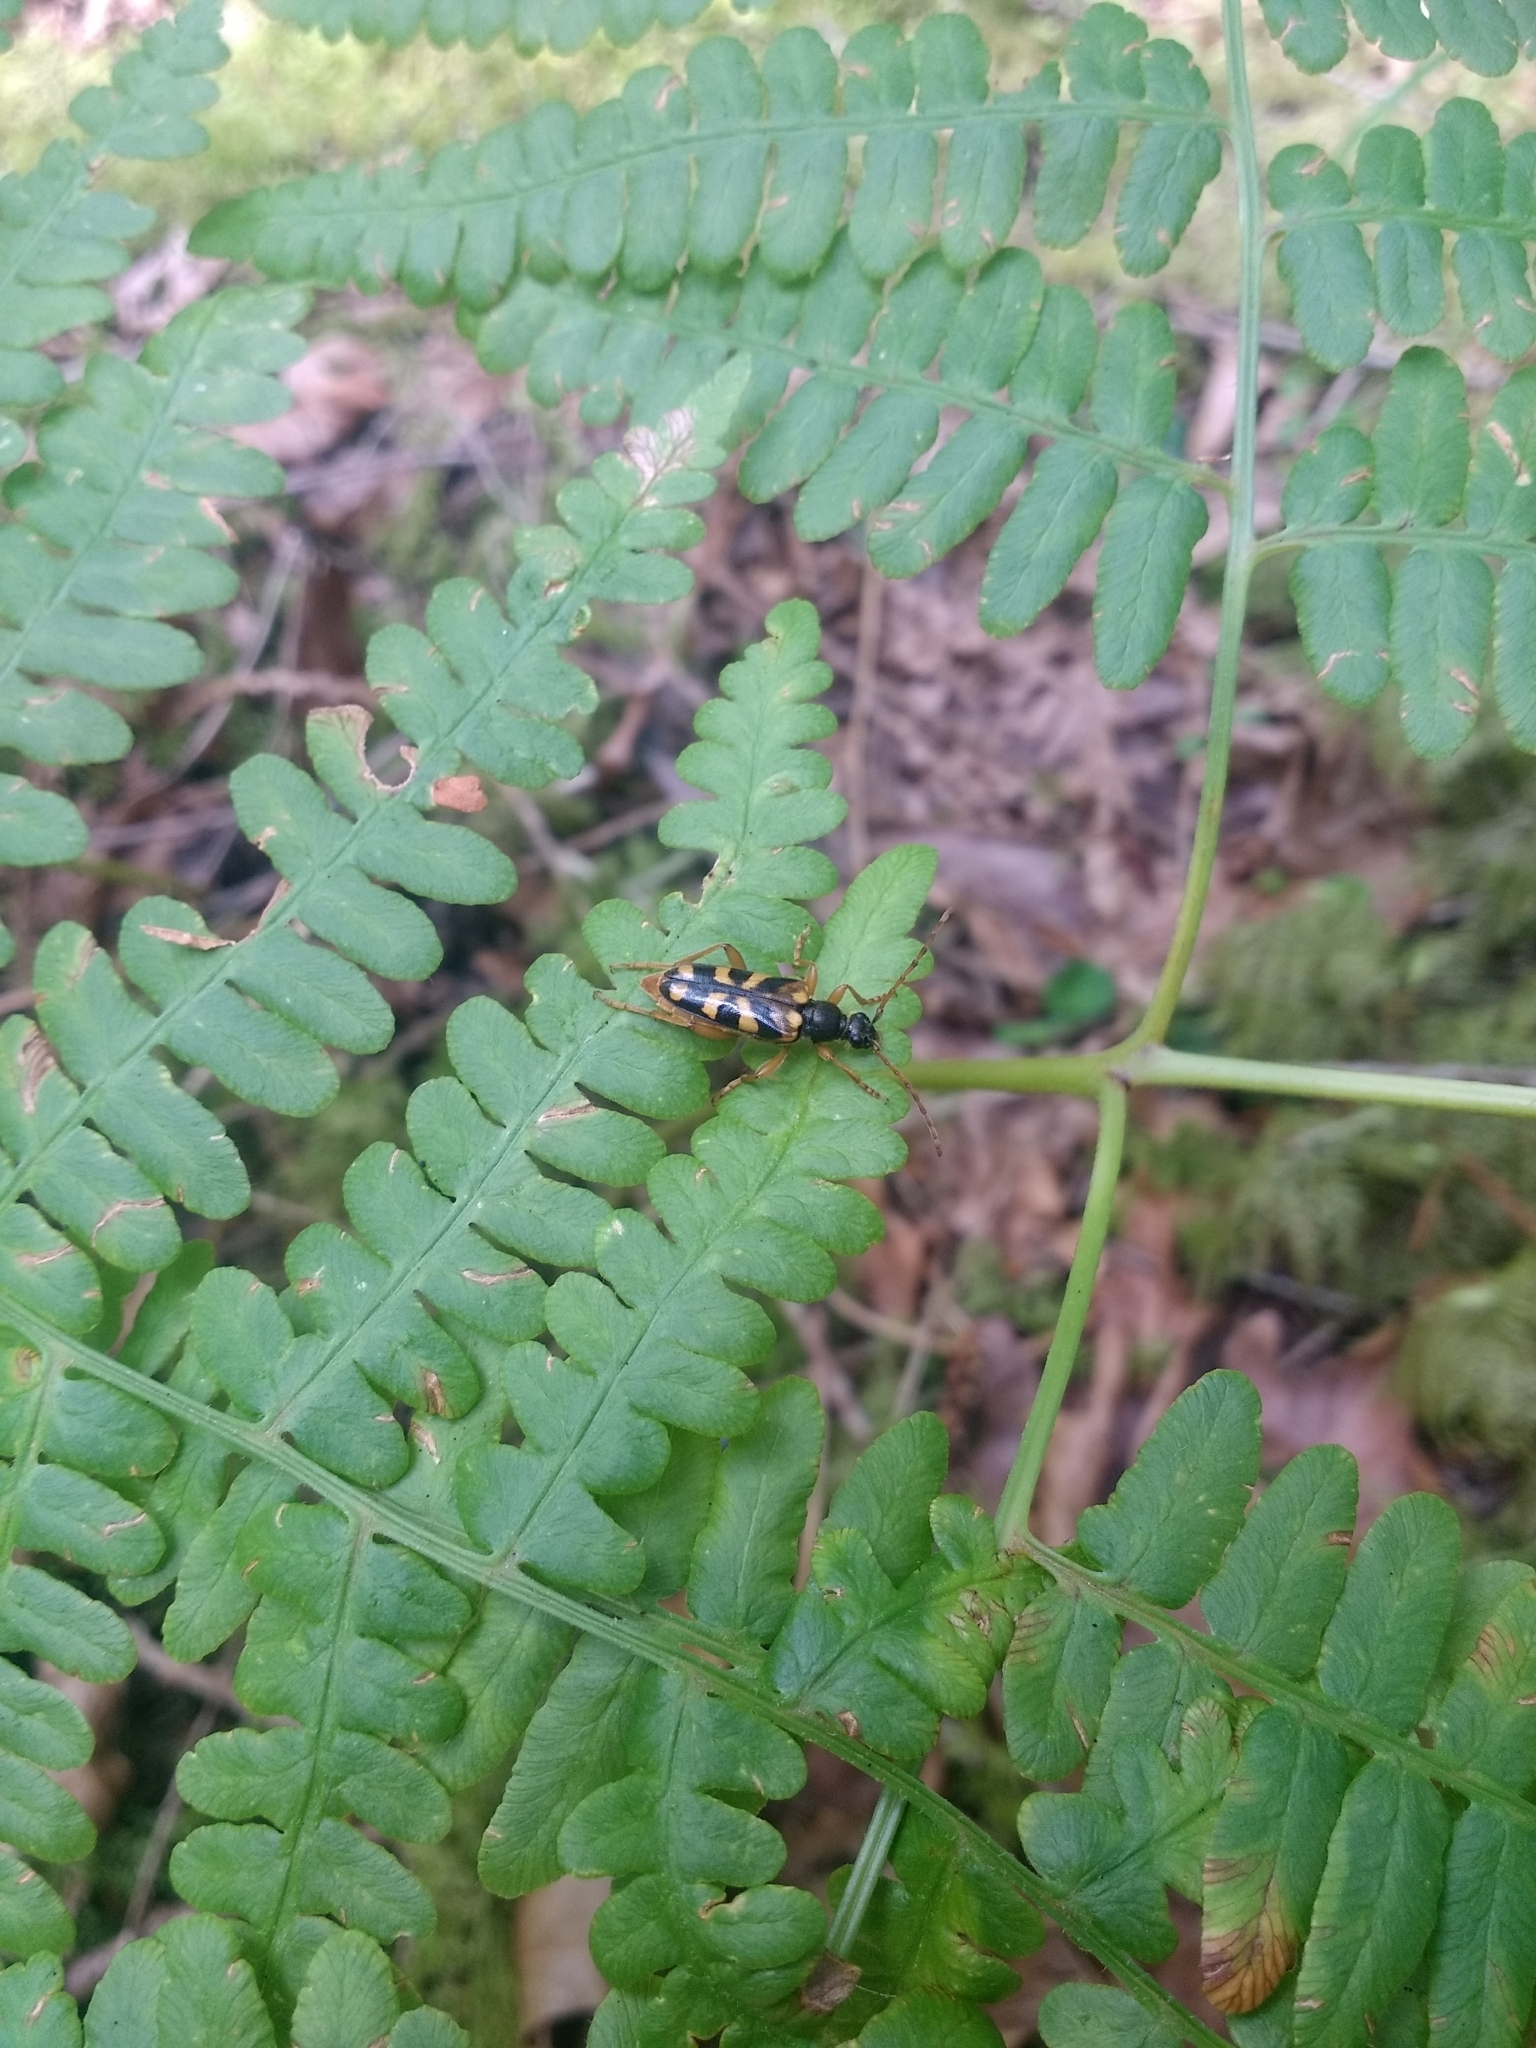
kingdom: Animalia
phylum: Arthropoda
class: Insecta
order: Coleoptera
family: Cerambycidae
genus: Xestoleptura
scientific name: Xestoleptura crassicornis
